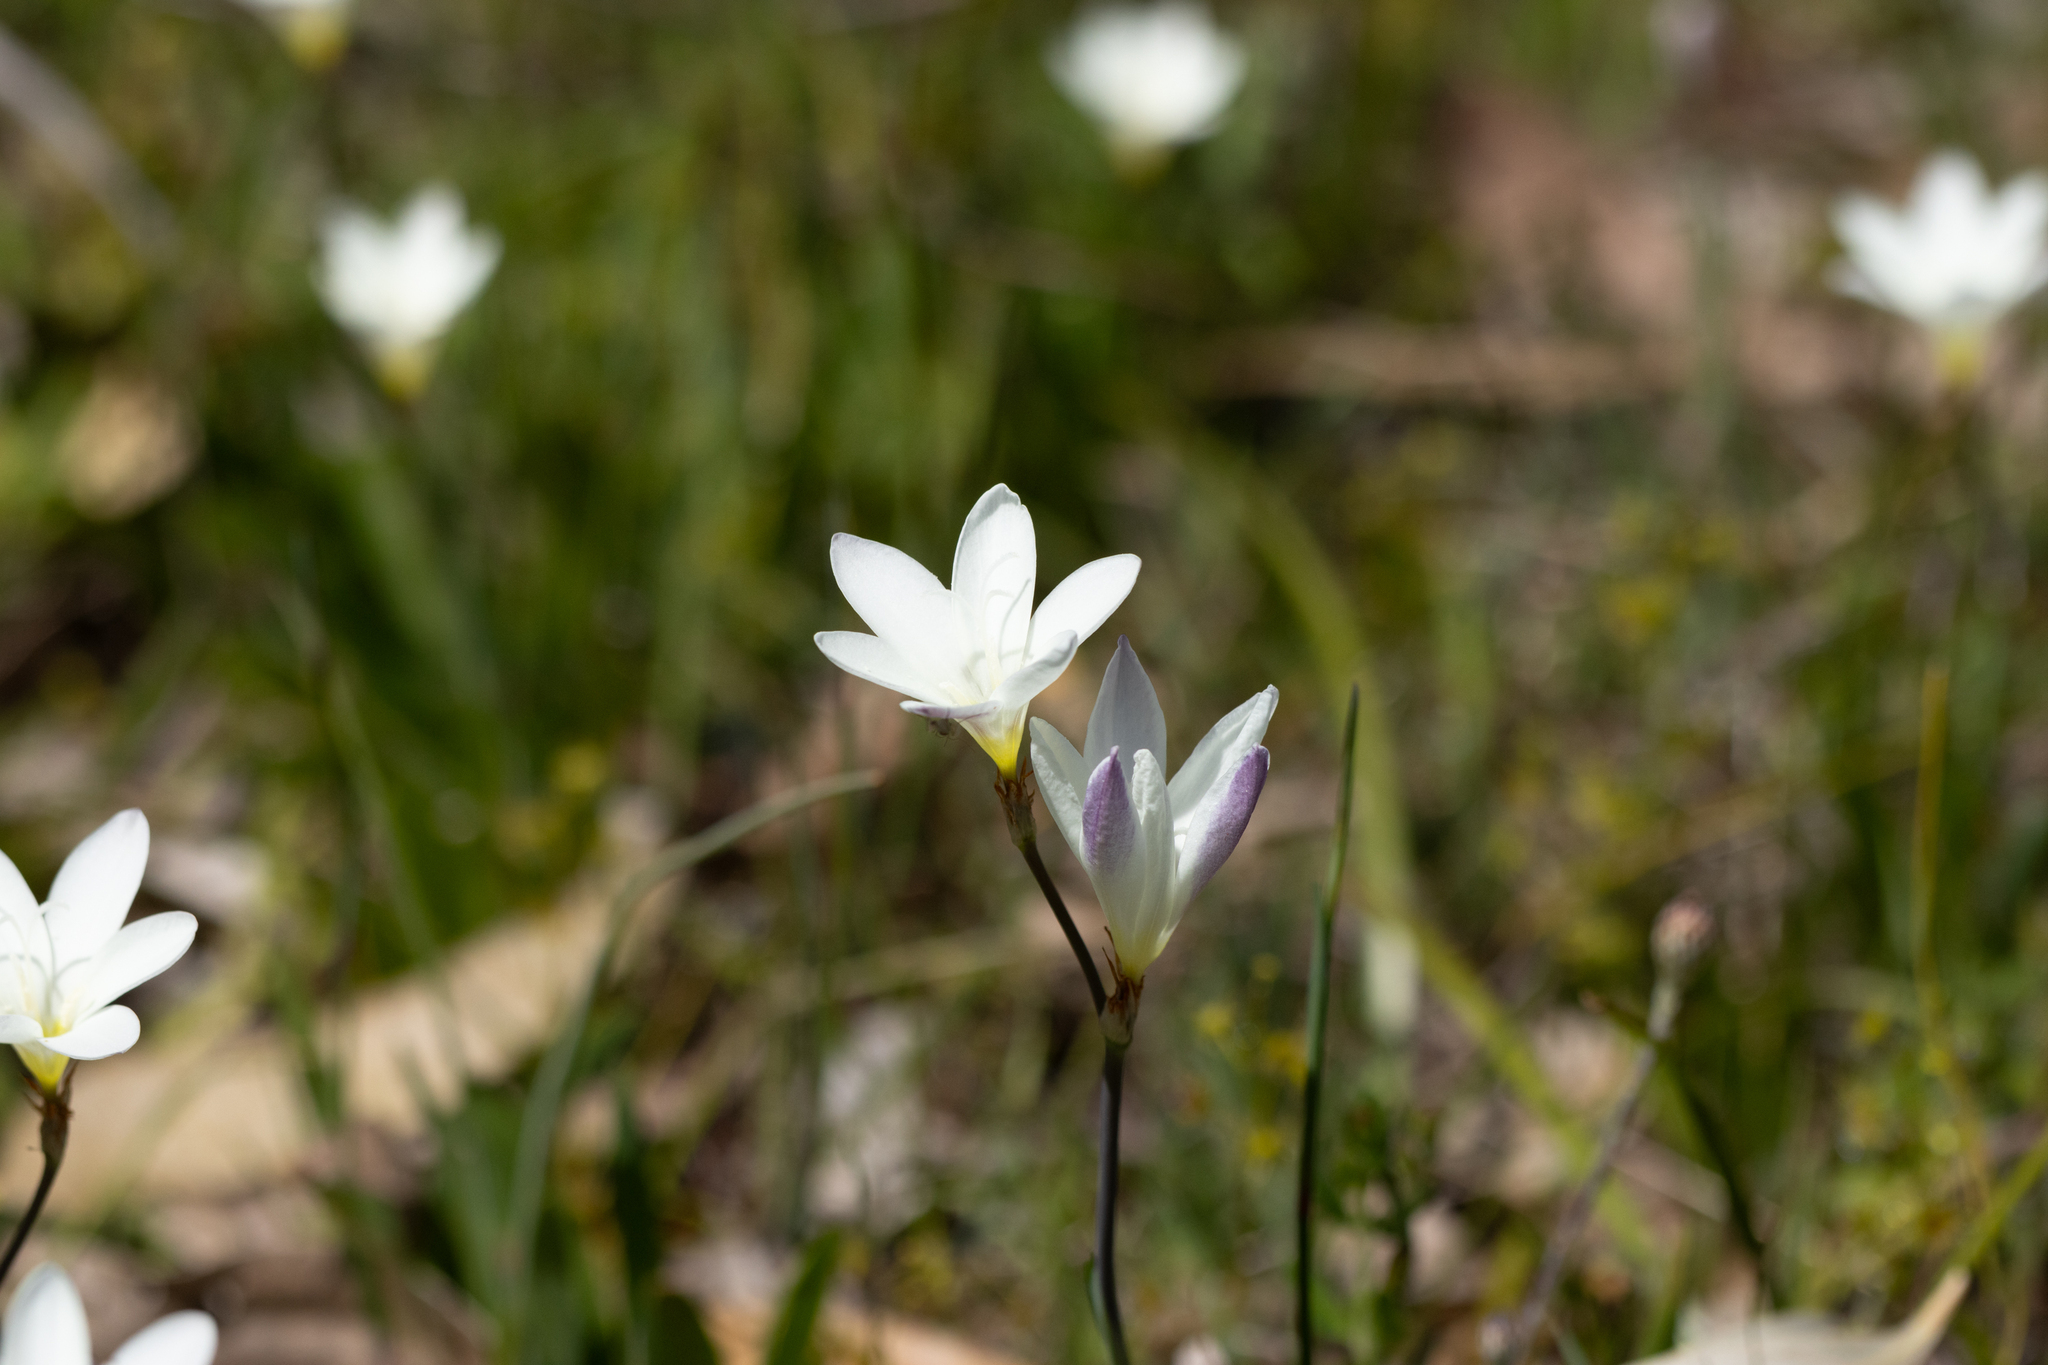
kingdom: Plantae
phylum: Tracheophyta
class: Liliopsida
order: Asparagales
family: Iridaceae
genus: Sparaxis
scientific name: Sparaxis bulbifera
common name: Harlequin-flower
